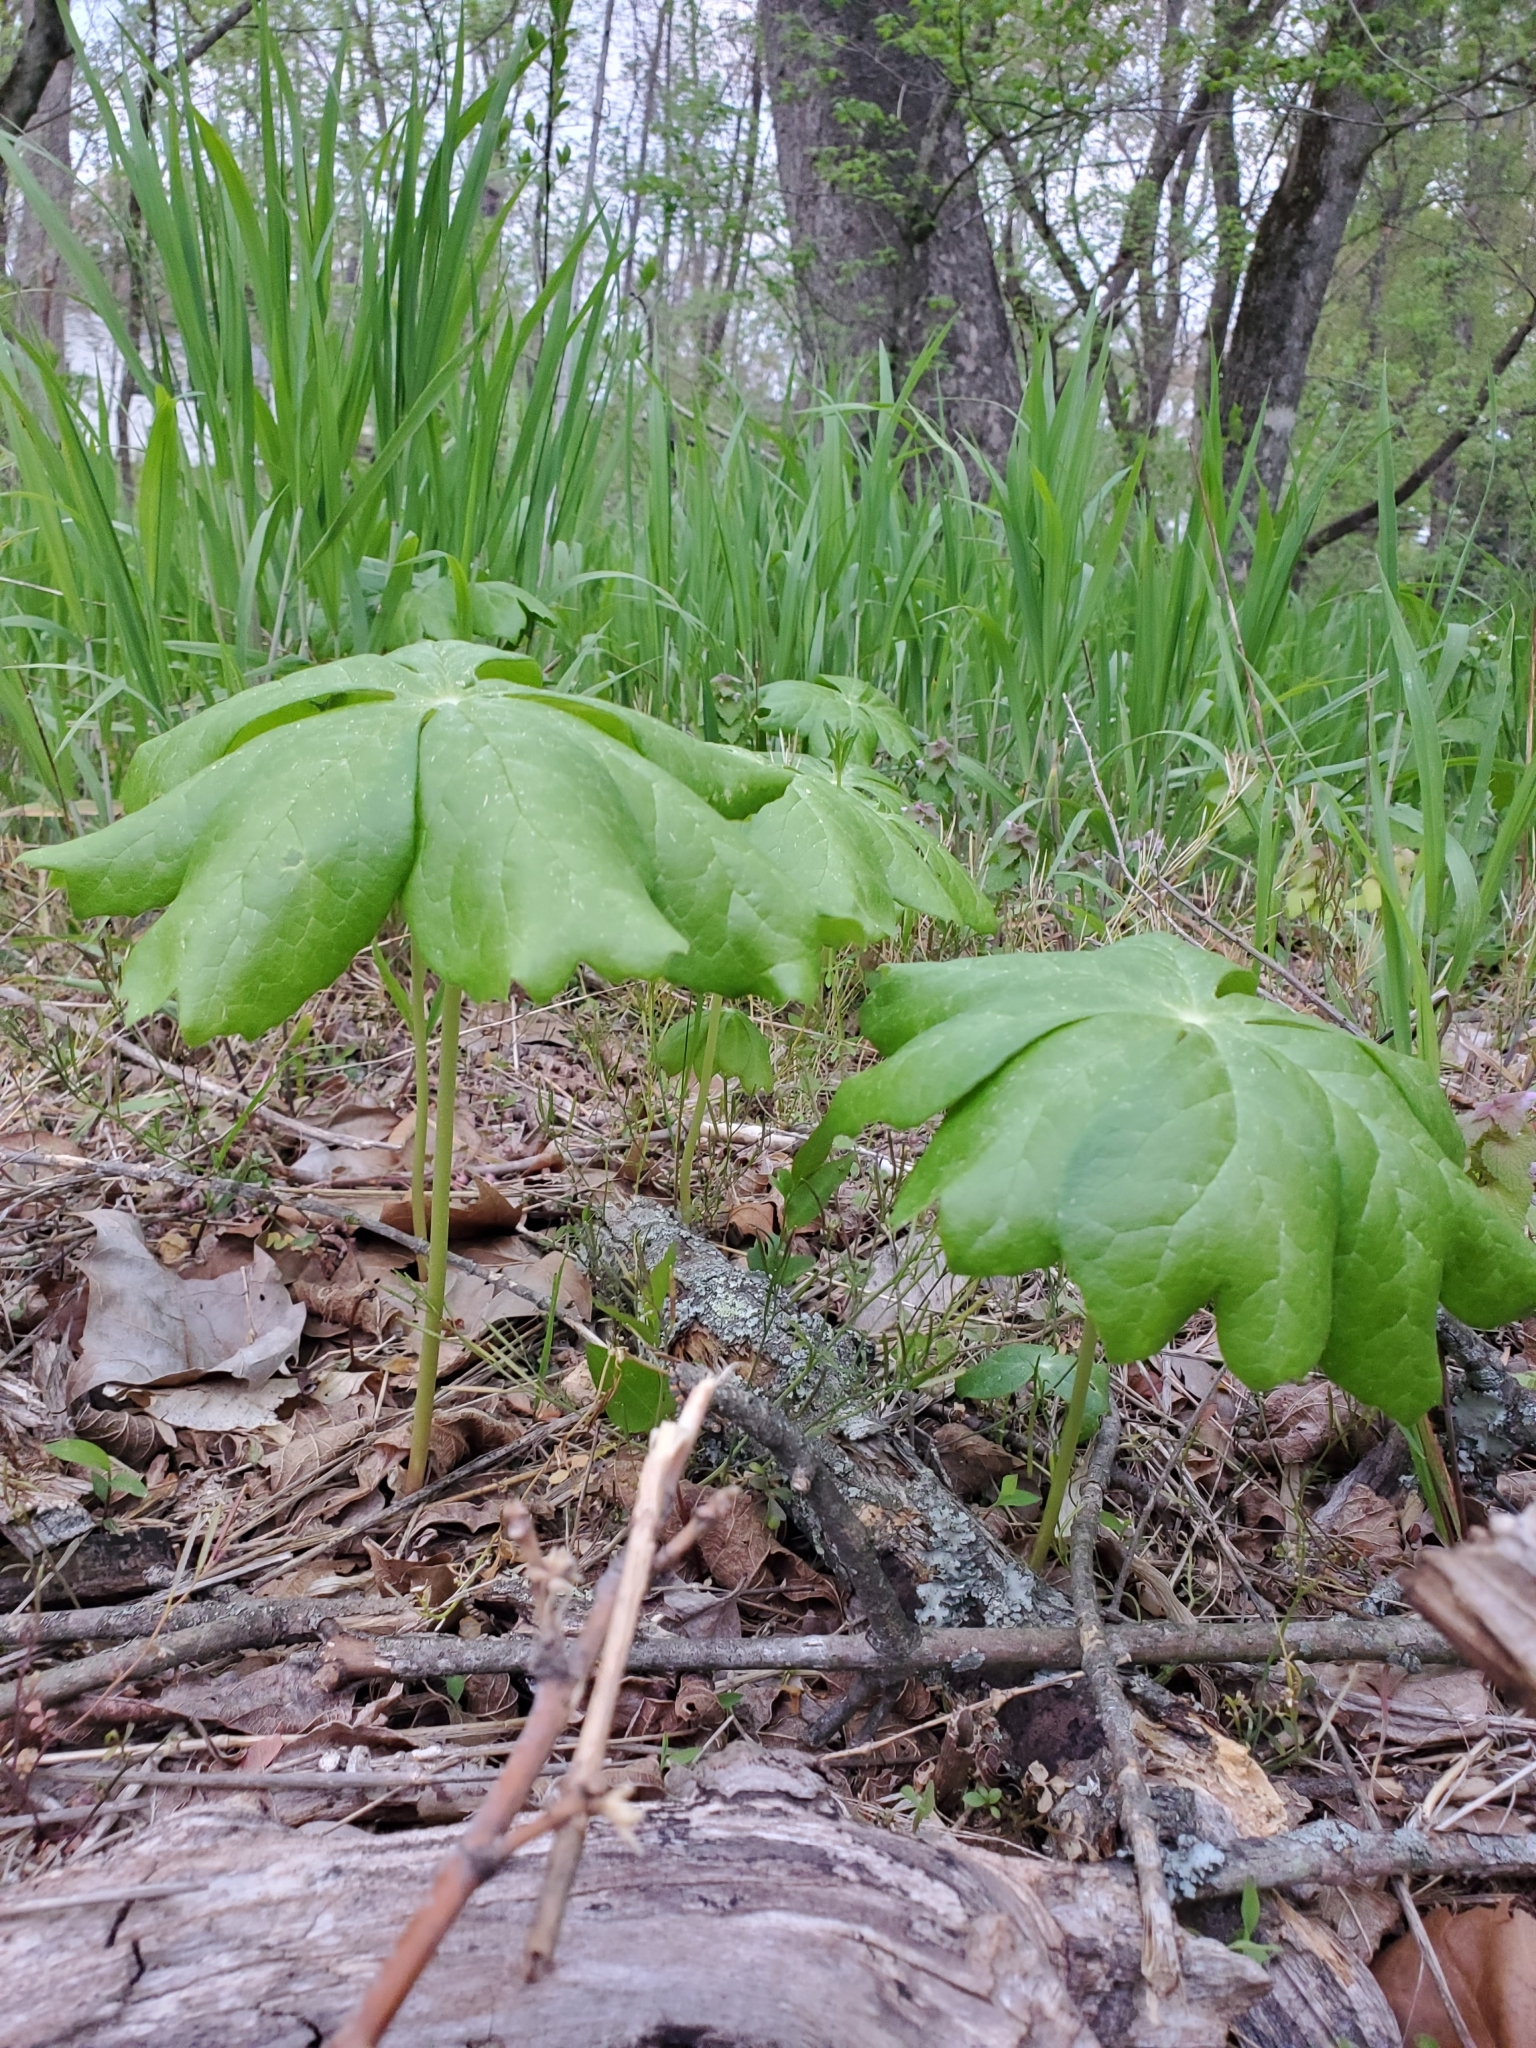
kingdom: Plantae
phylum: Tracheophyta
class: Magnoliopsida
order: Ranunculales
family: Berberidaceae
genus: Podophyllum
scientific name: Podophyllum peltatum
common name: Wild mandrake
